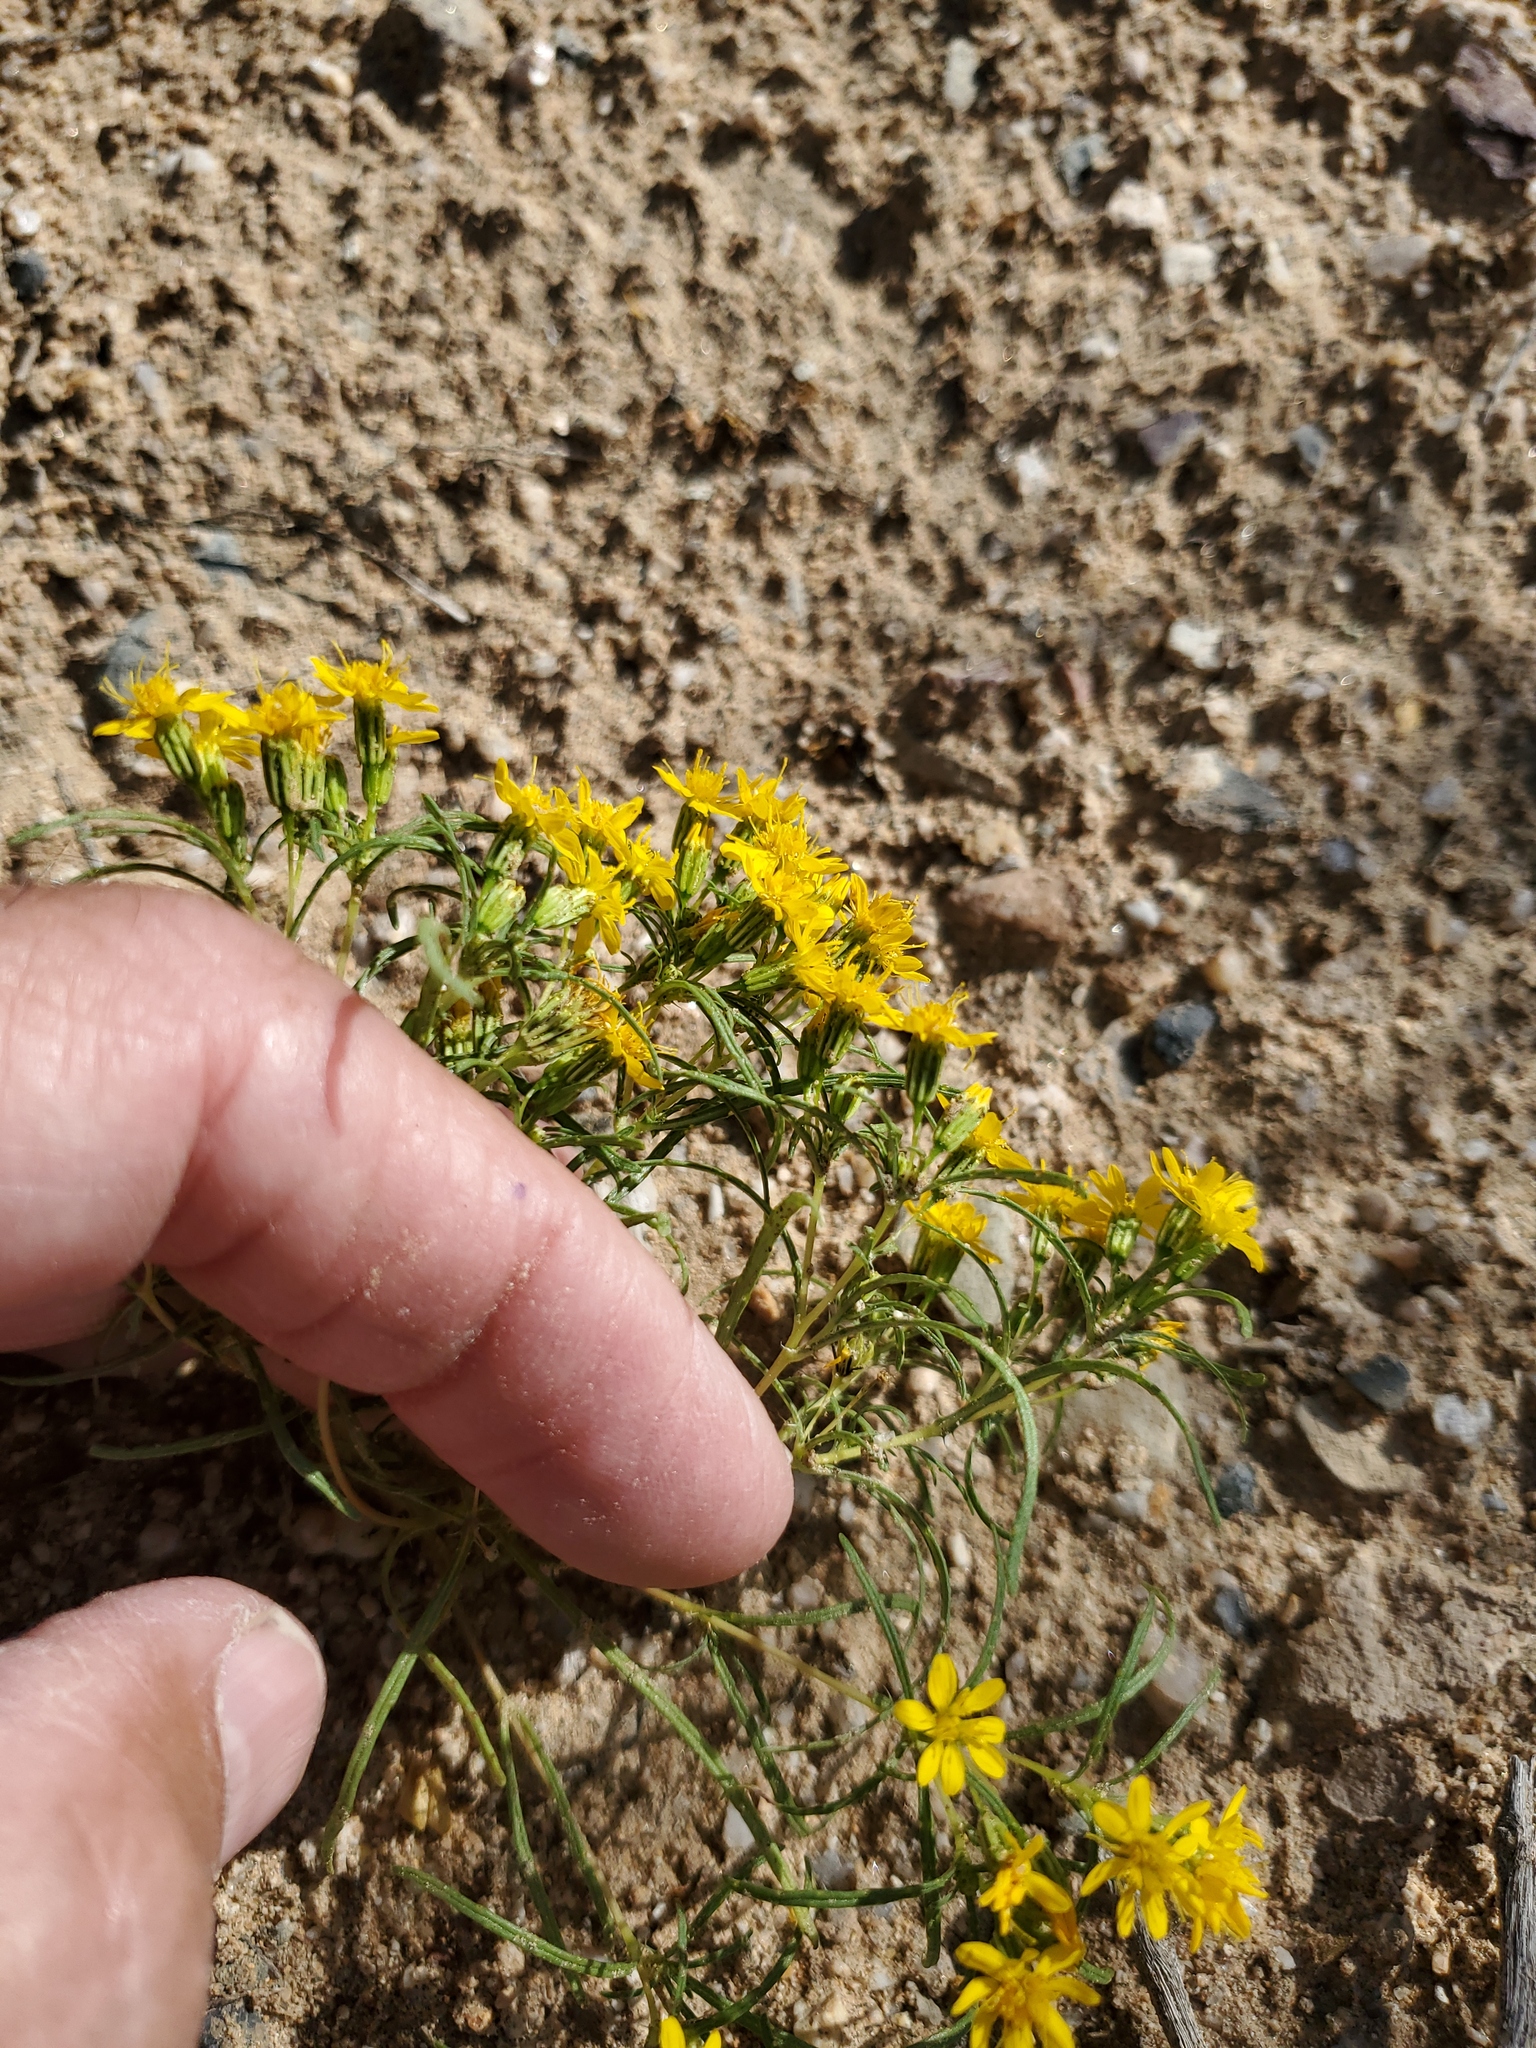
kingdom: Plantae
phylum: Tracheophyta
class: Magnoliopsida
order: Asterales
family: Asteraceae
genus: Pectis
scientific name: Pectis papposa
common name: Many-bristle chinchweed
